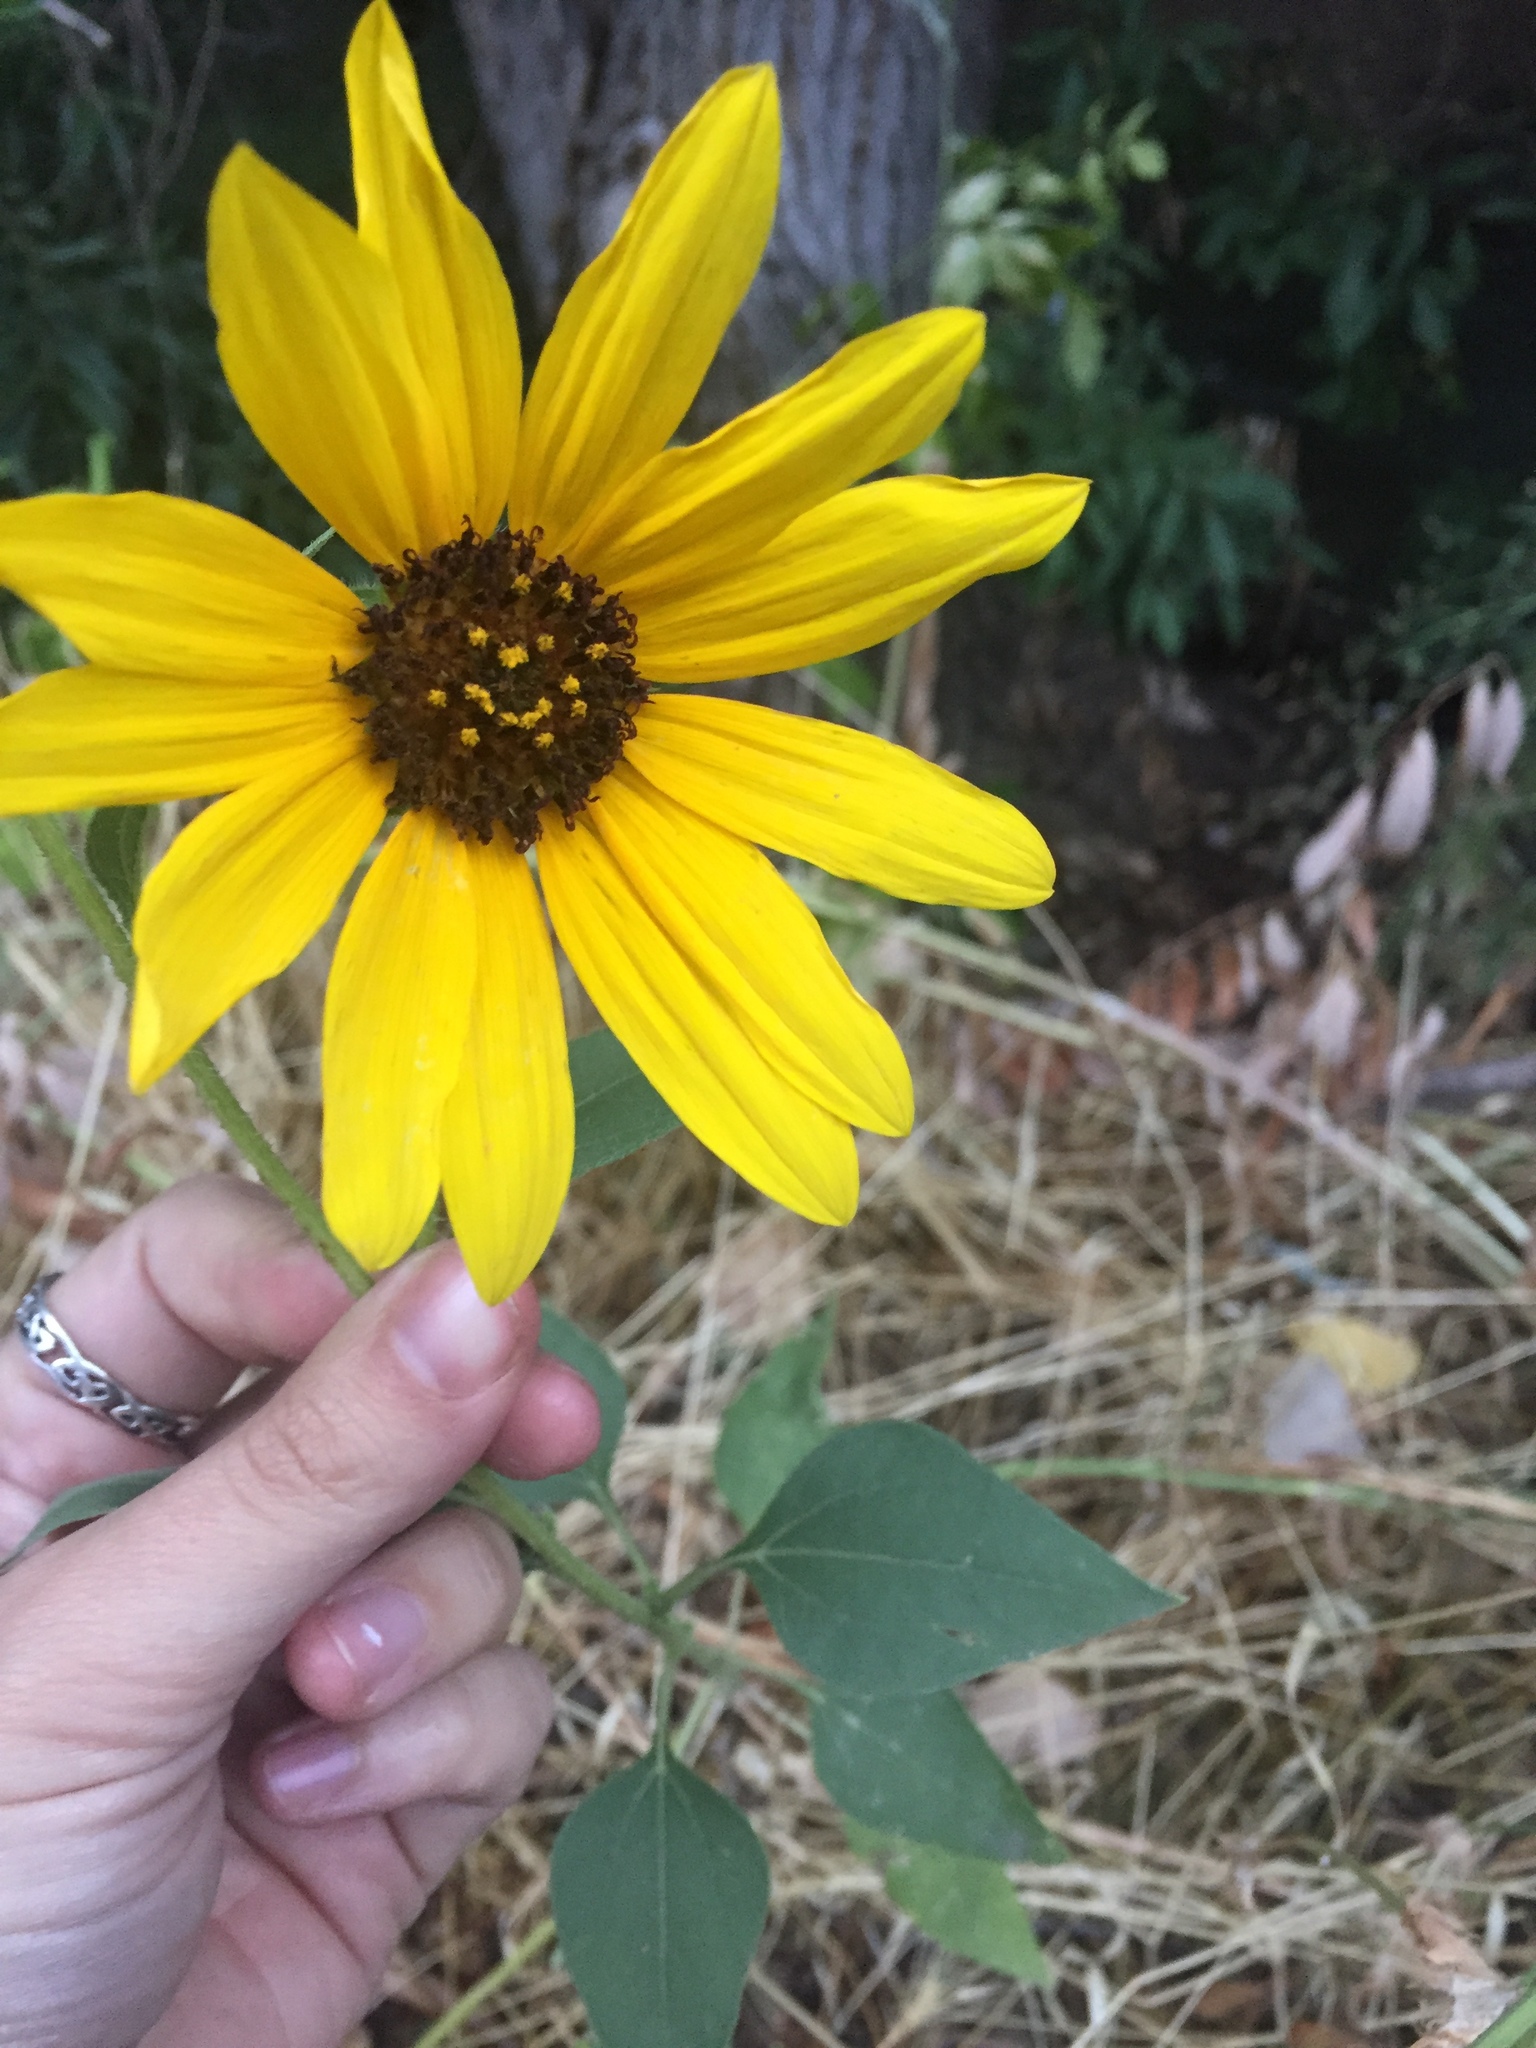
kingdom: Plantae
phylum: Tracheophyta
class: Magnoliopsida
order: Asterales
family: Asteraceae
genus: Helianthus
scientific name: Helianthus annuus
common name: Sunflower
